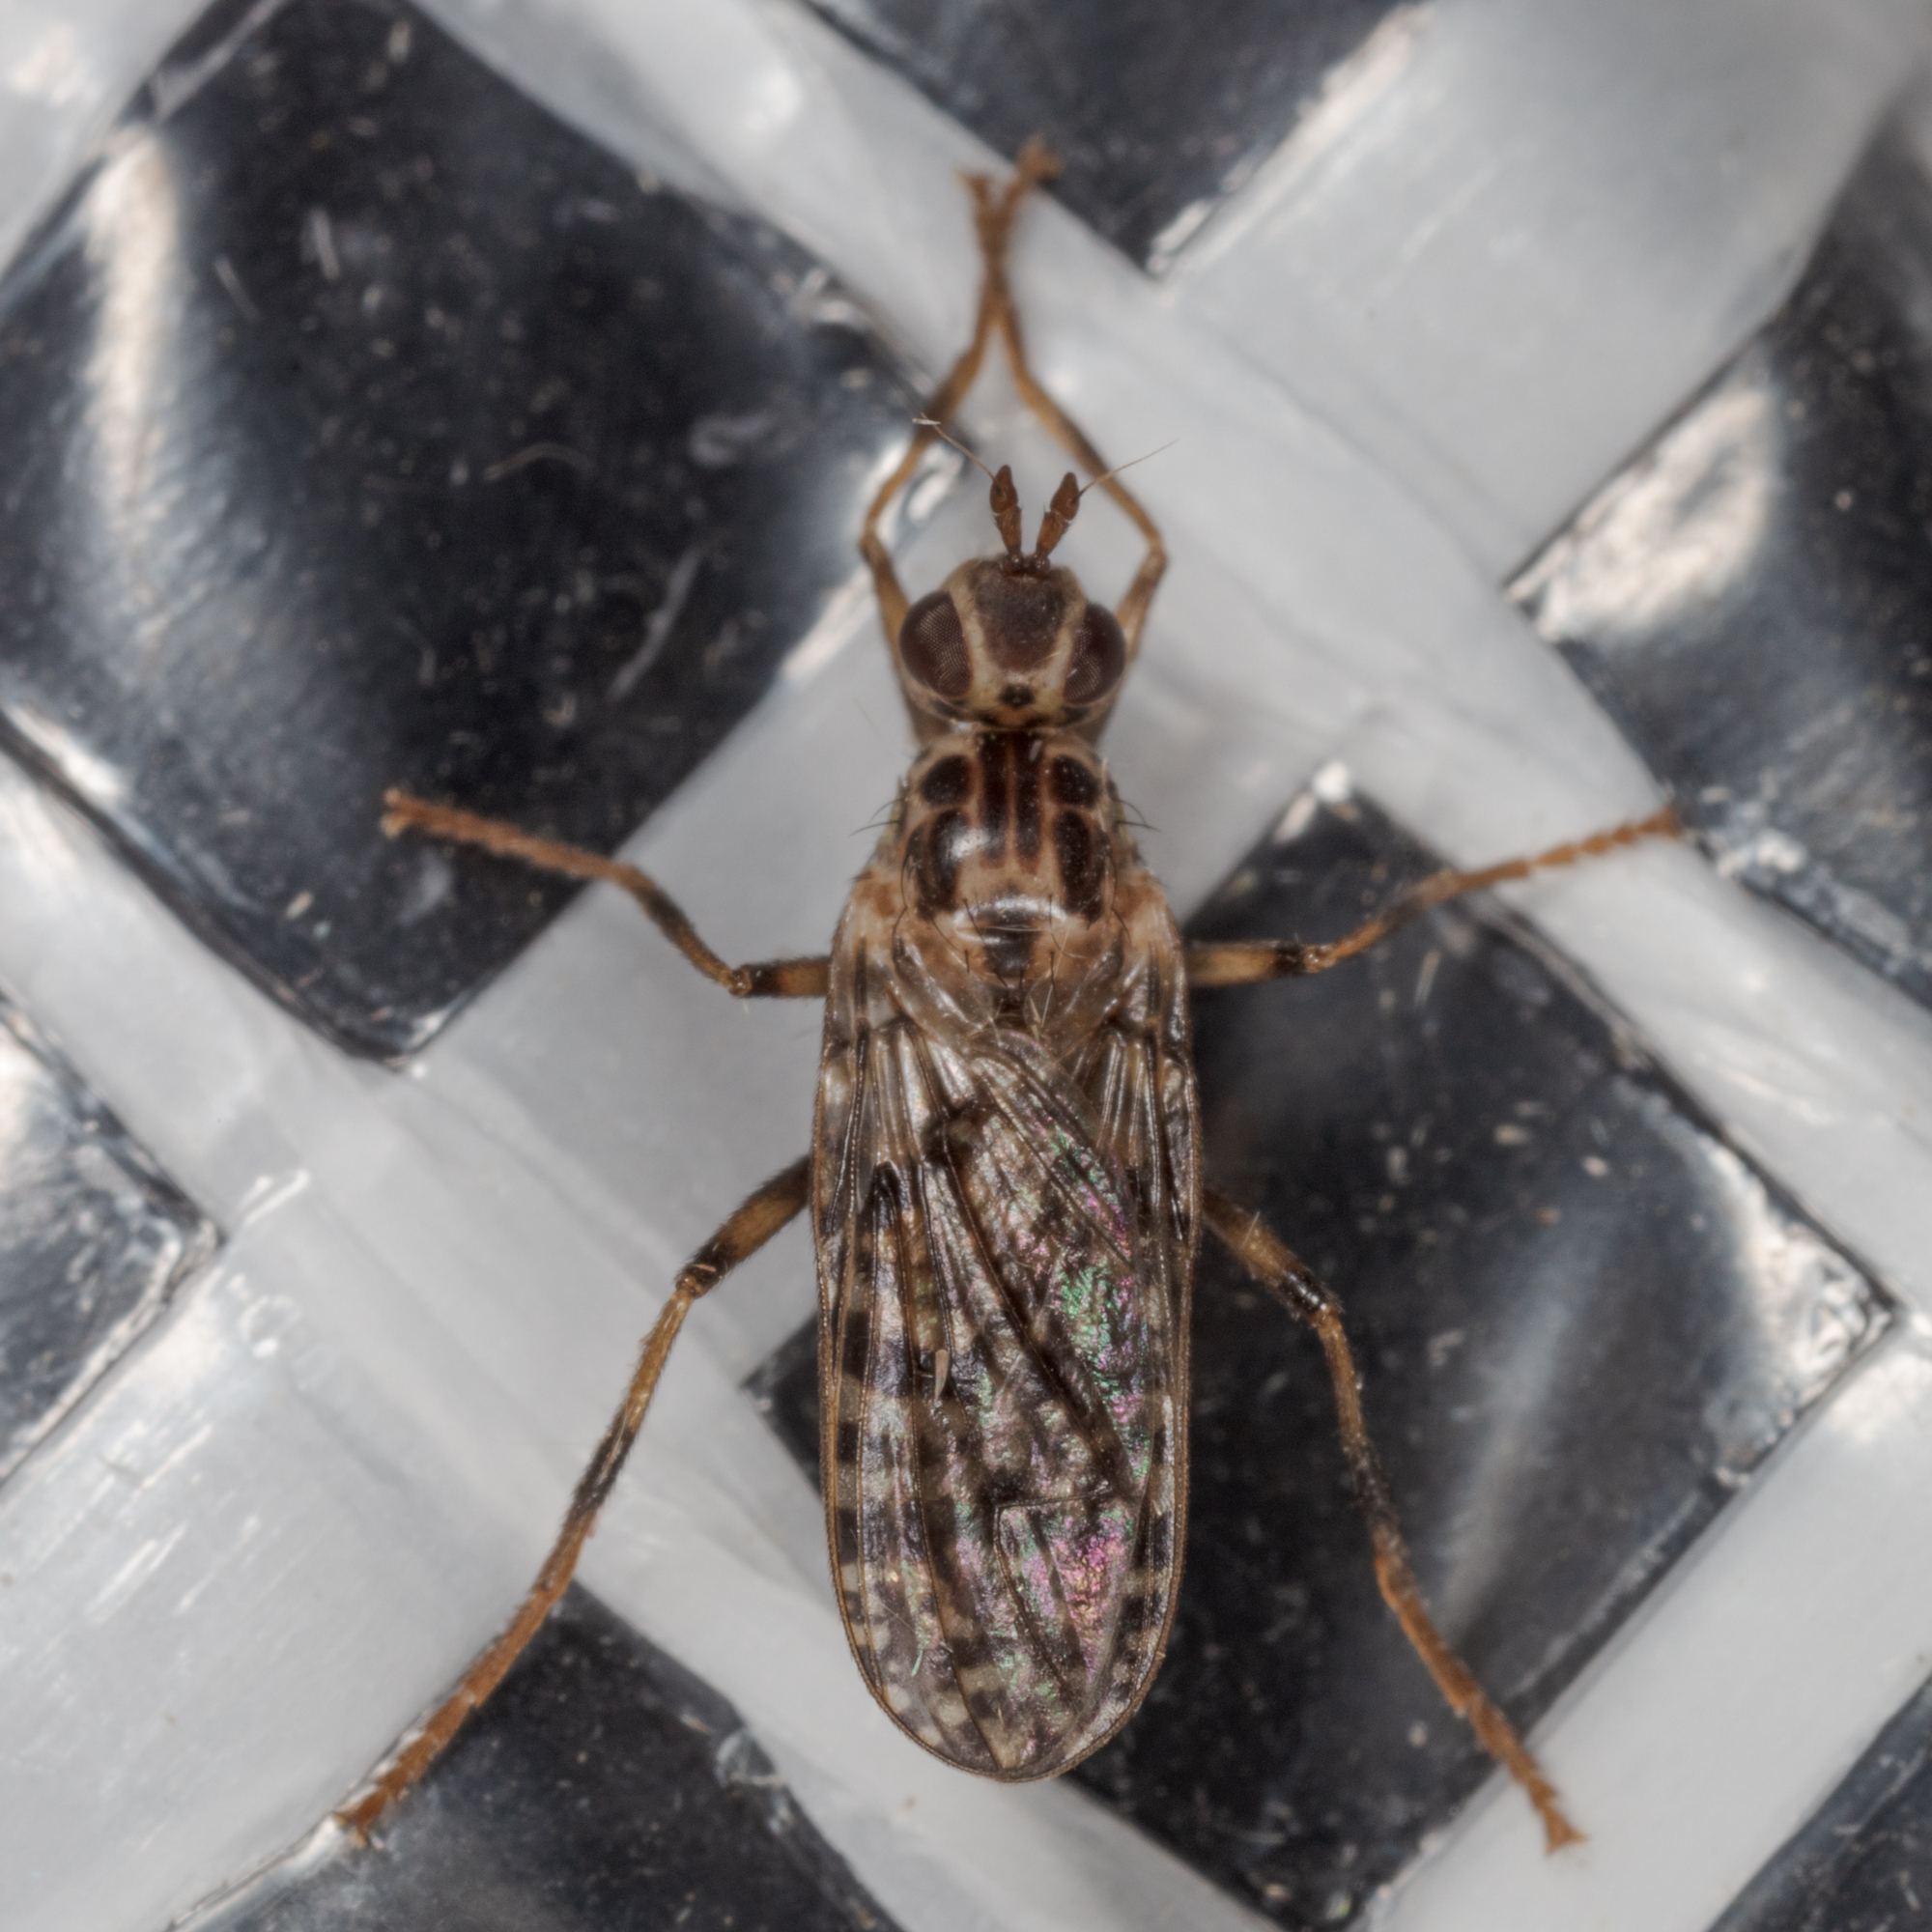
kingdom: Animalia
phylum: Arthropoda
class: Insecta
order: Diptera
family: Pyrgotidae
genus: Boreothrinax
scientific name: Boreothrinax
